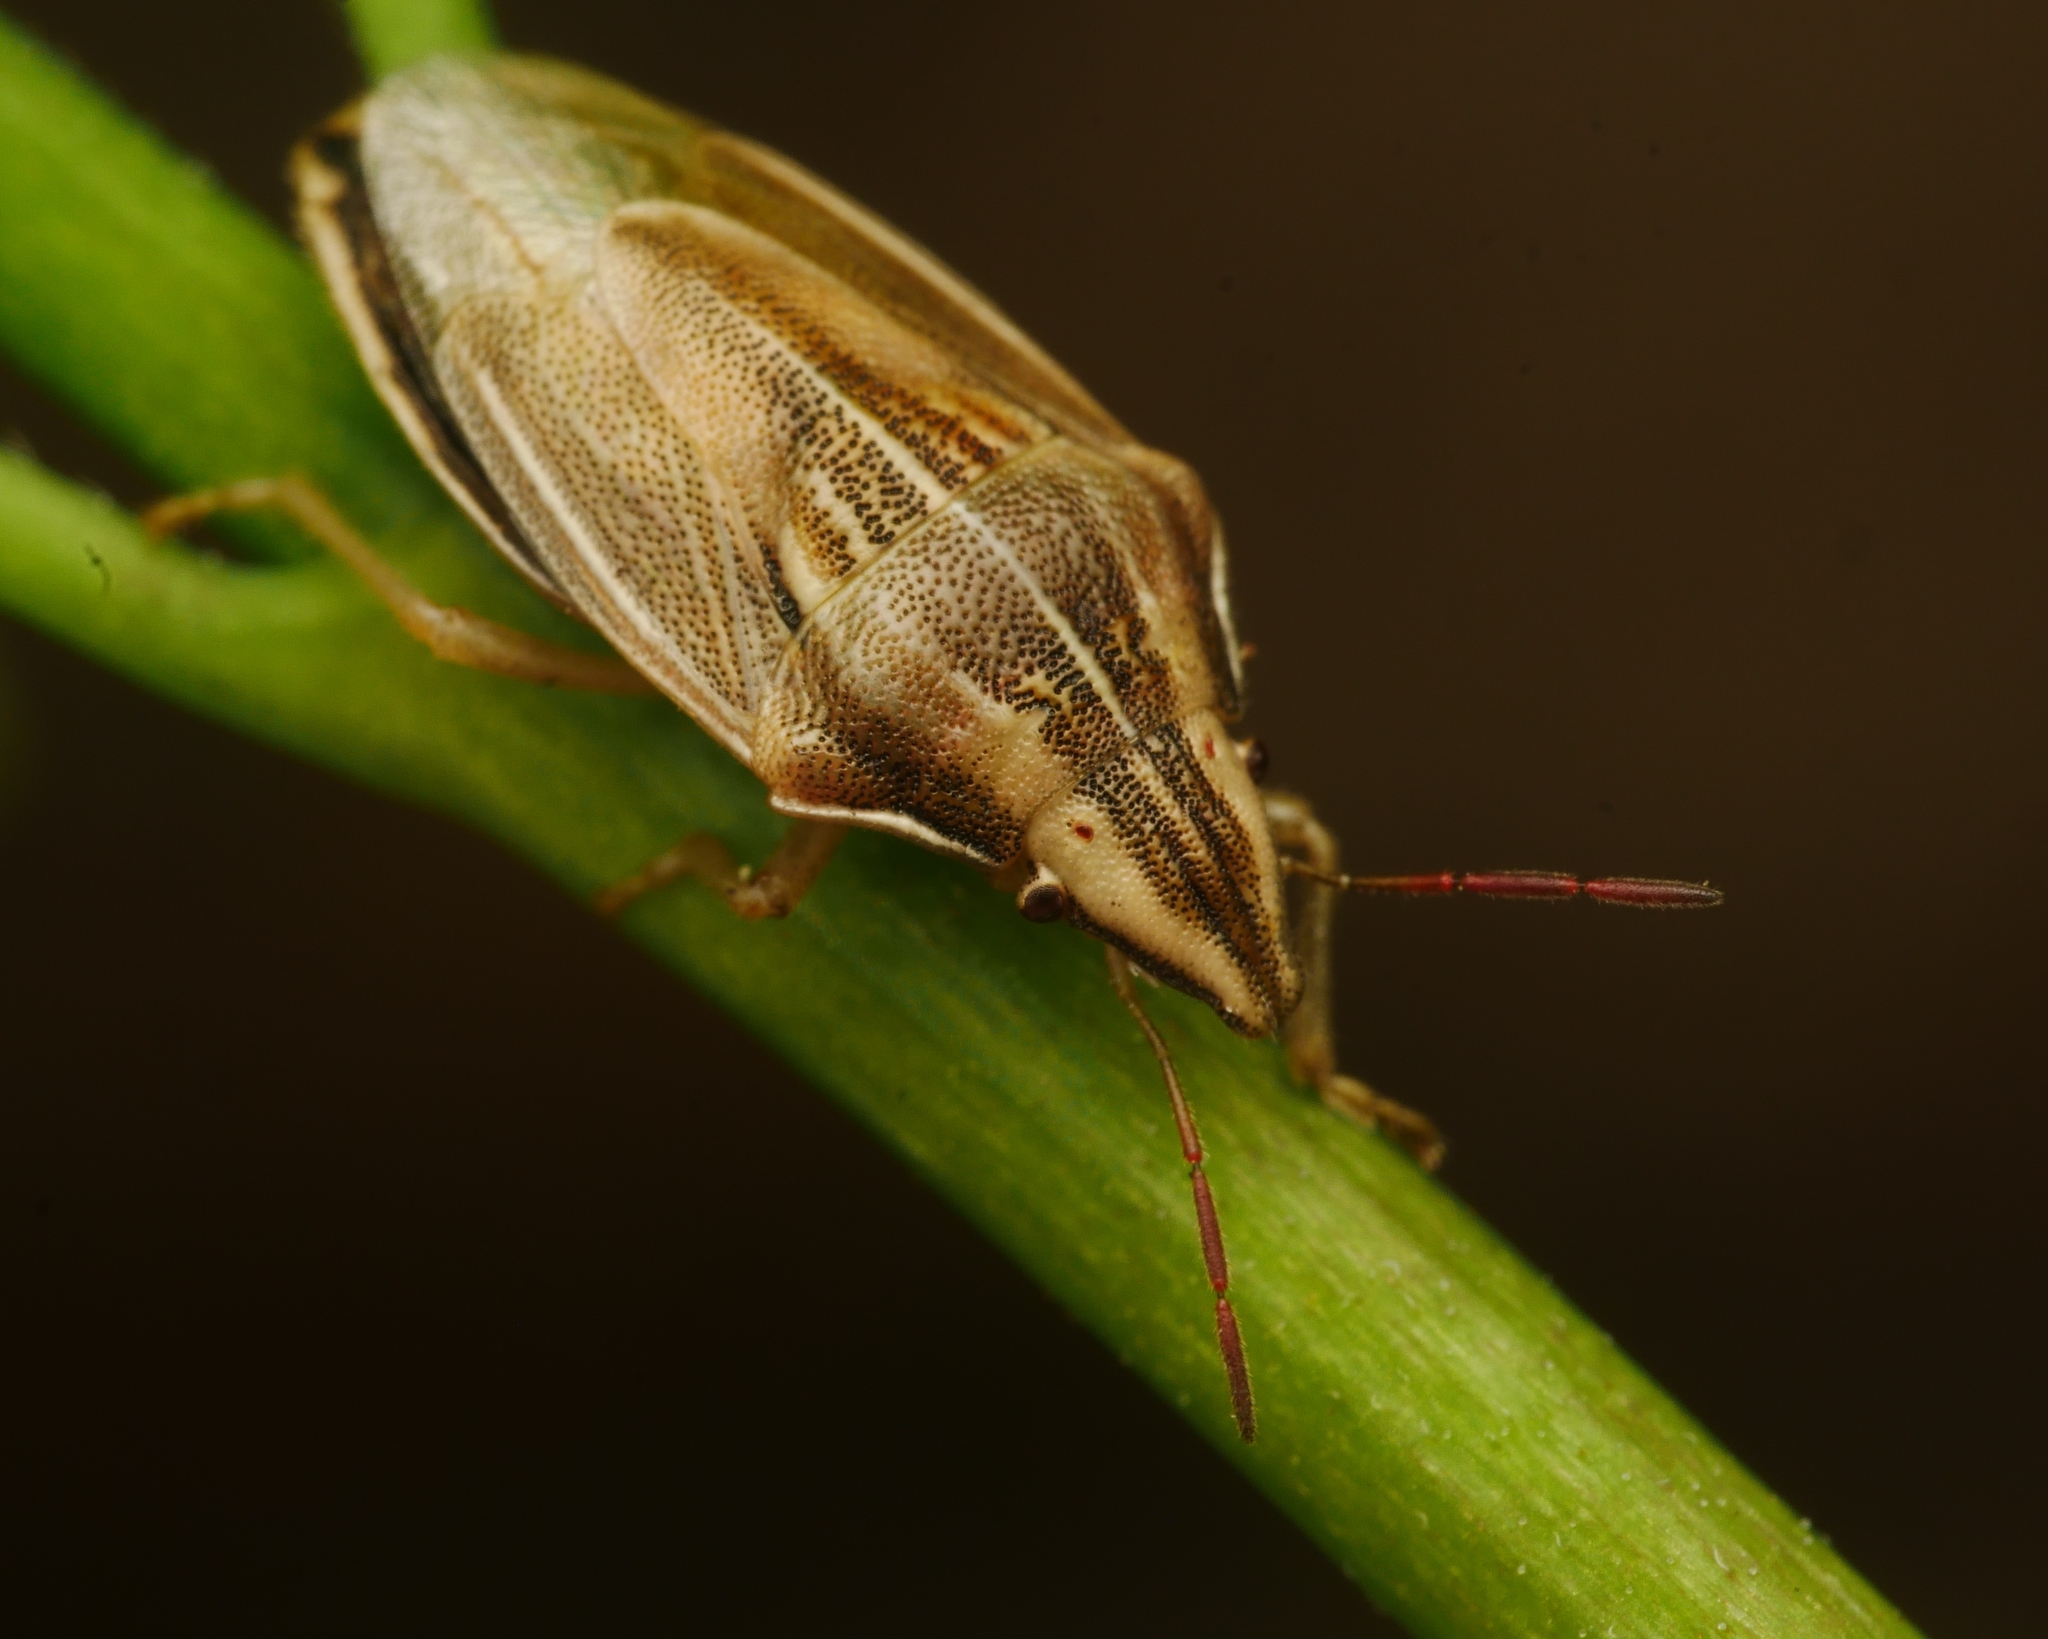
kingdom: Animalia
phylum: Arthropoda
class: Insecta
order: Hemiptera
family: Pentatomidae
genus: Aelia
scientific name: Aelia acuminata
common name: Bishop's mitre
